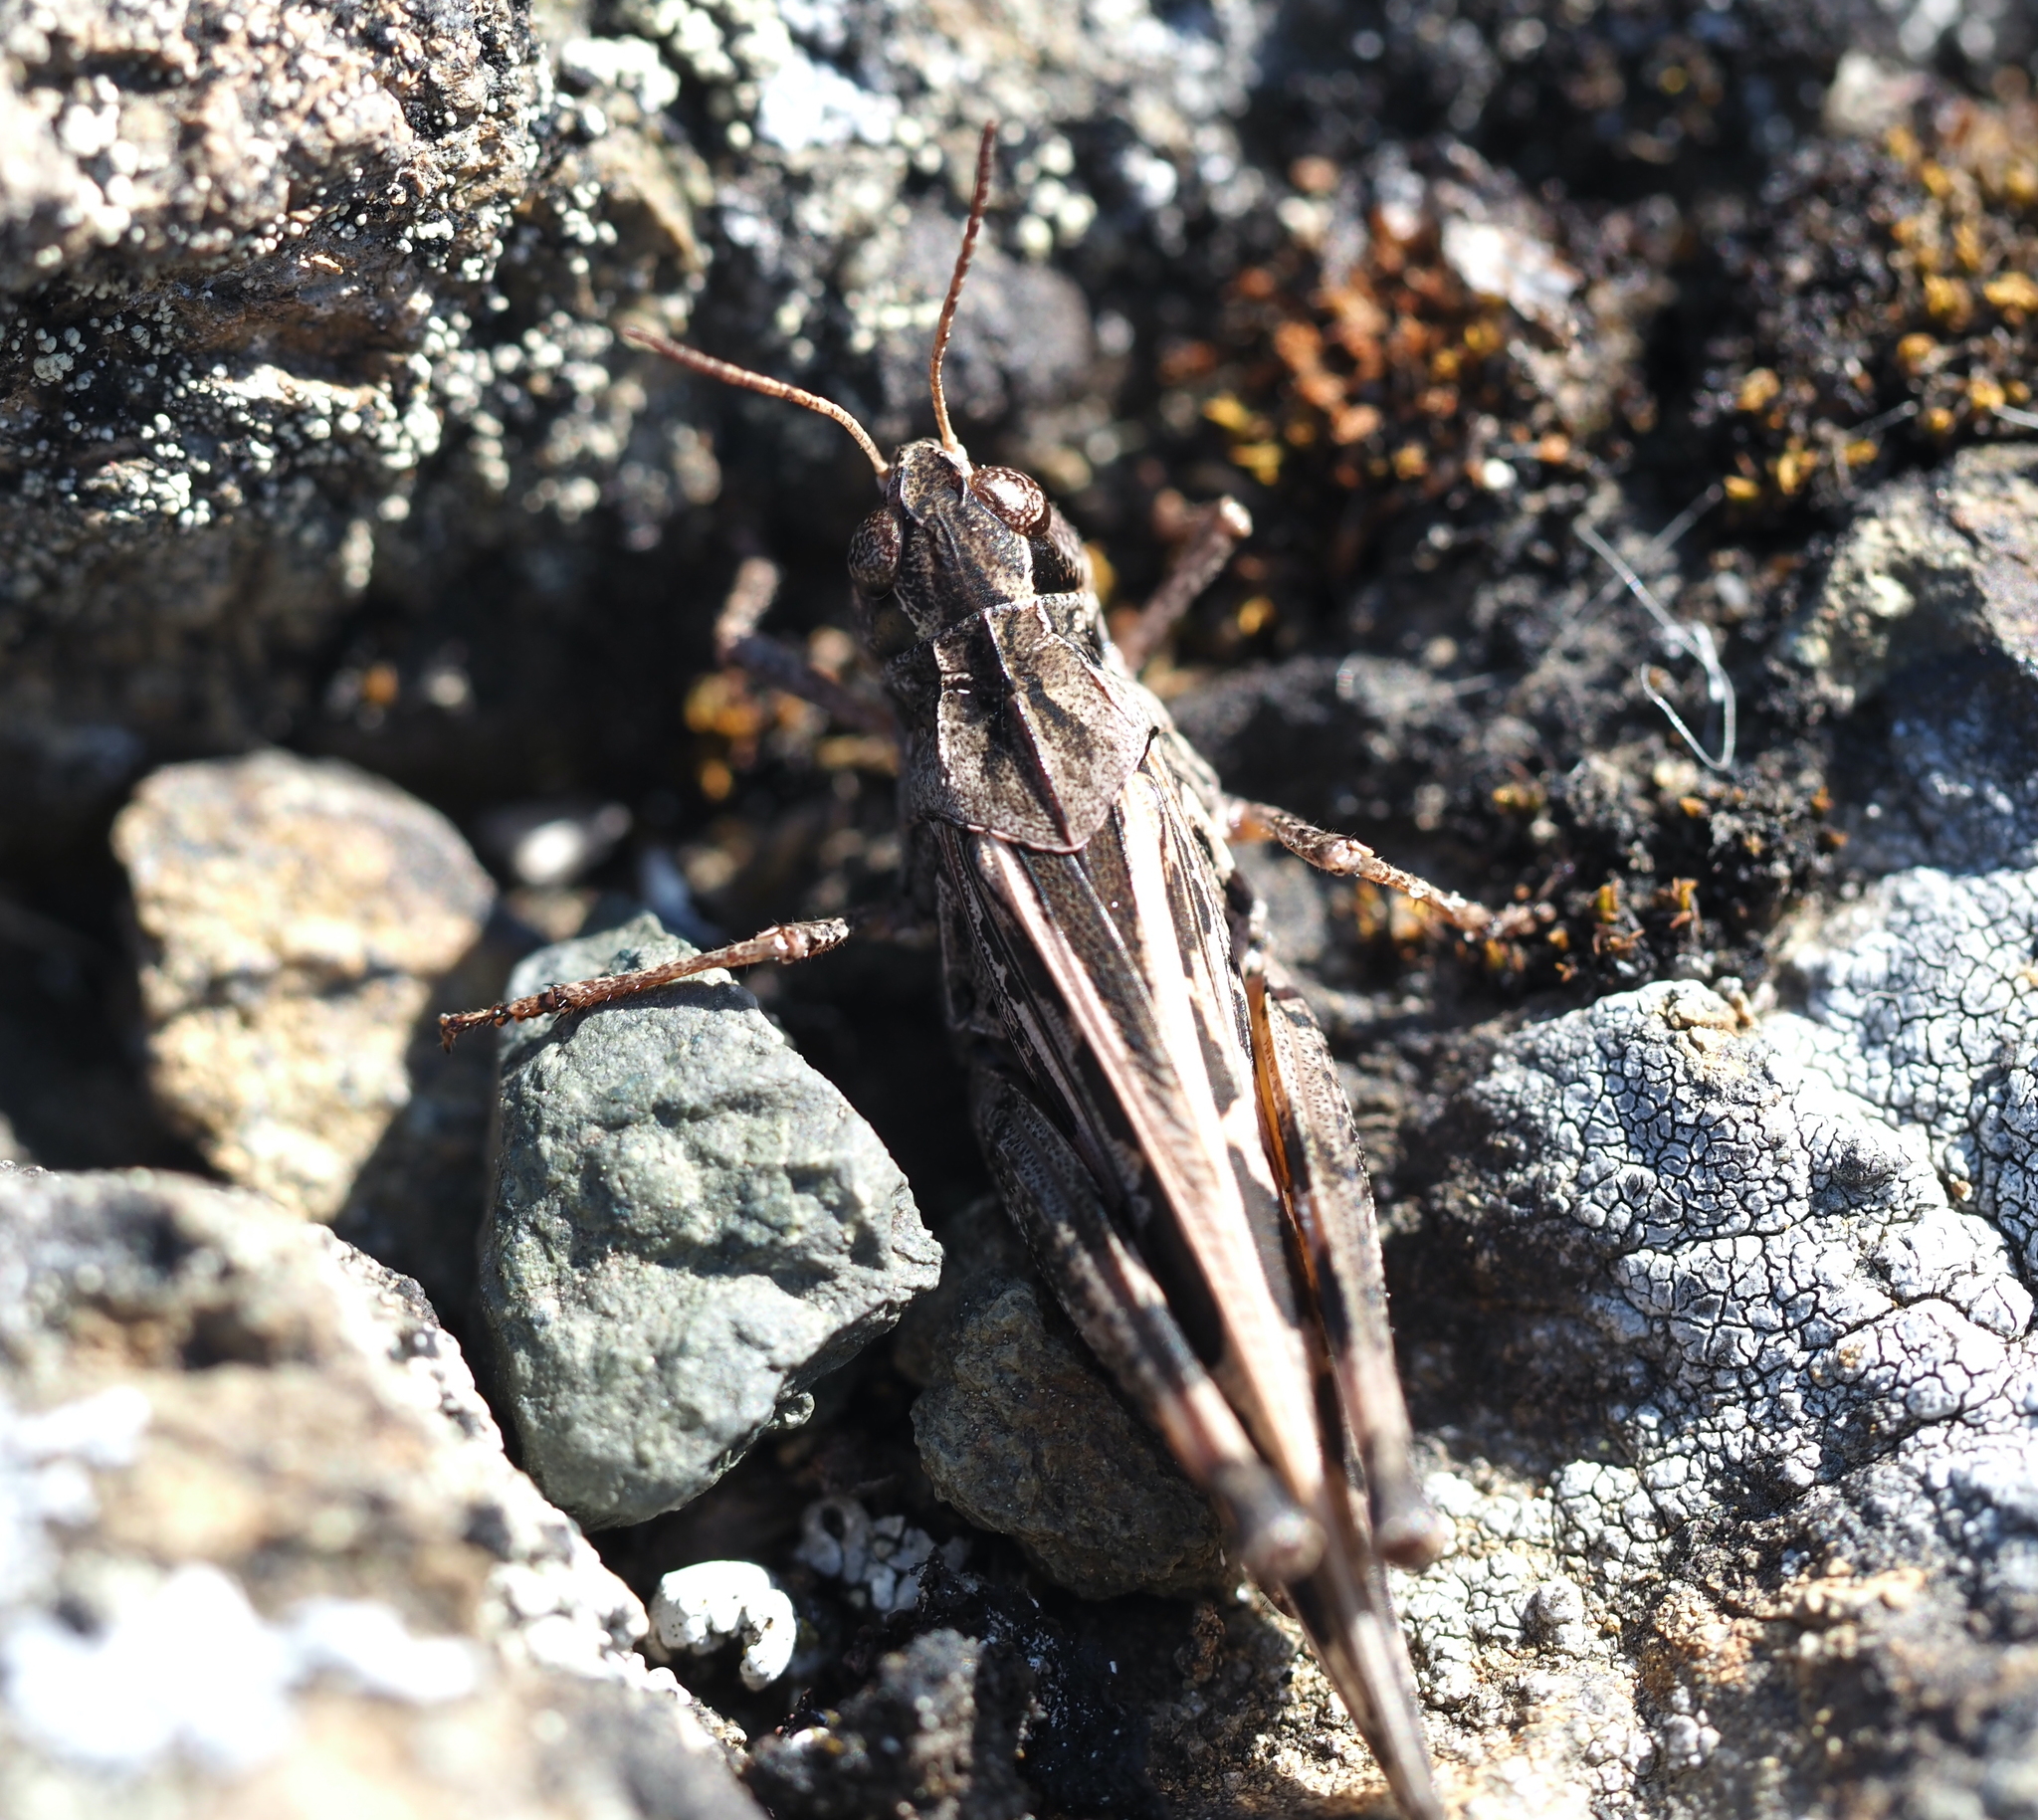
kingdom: Animalia
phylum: Arthropoda
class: Insecta
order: Orthoptera
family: Acrididae
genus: Camnula
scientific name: Camnula pellucida
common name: Clear-winged grasshopper
